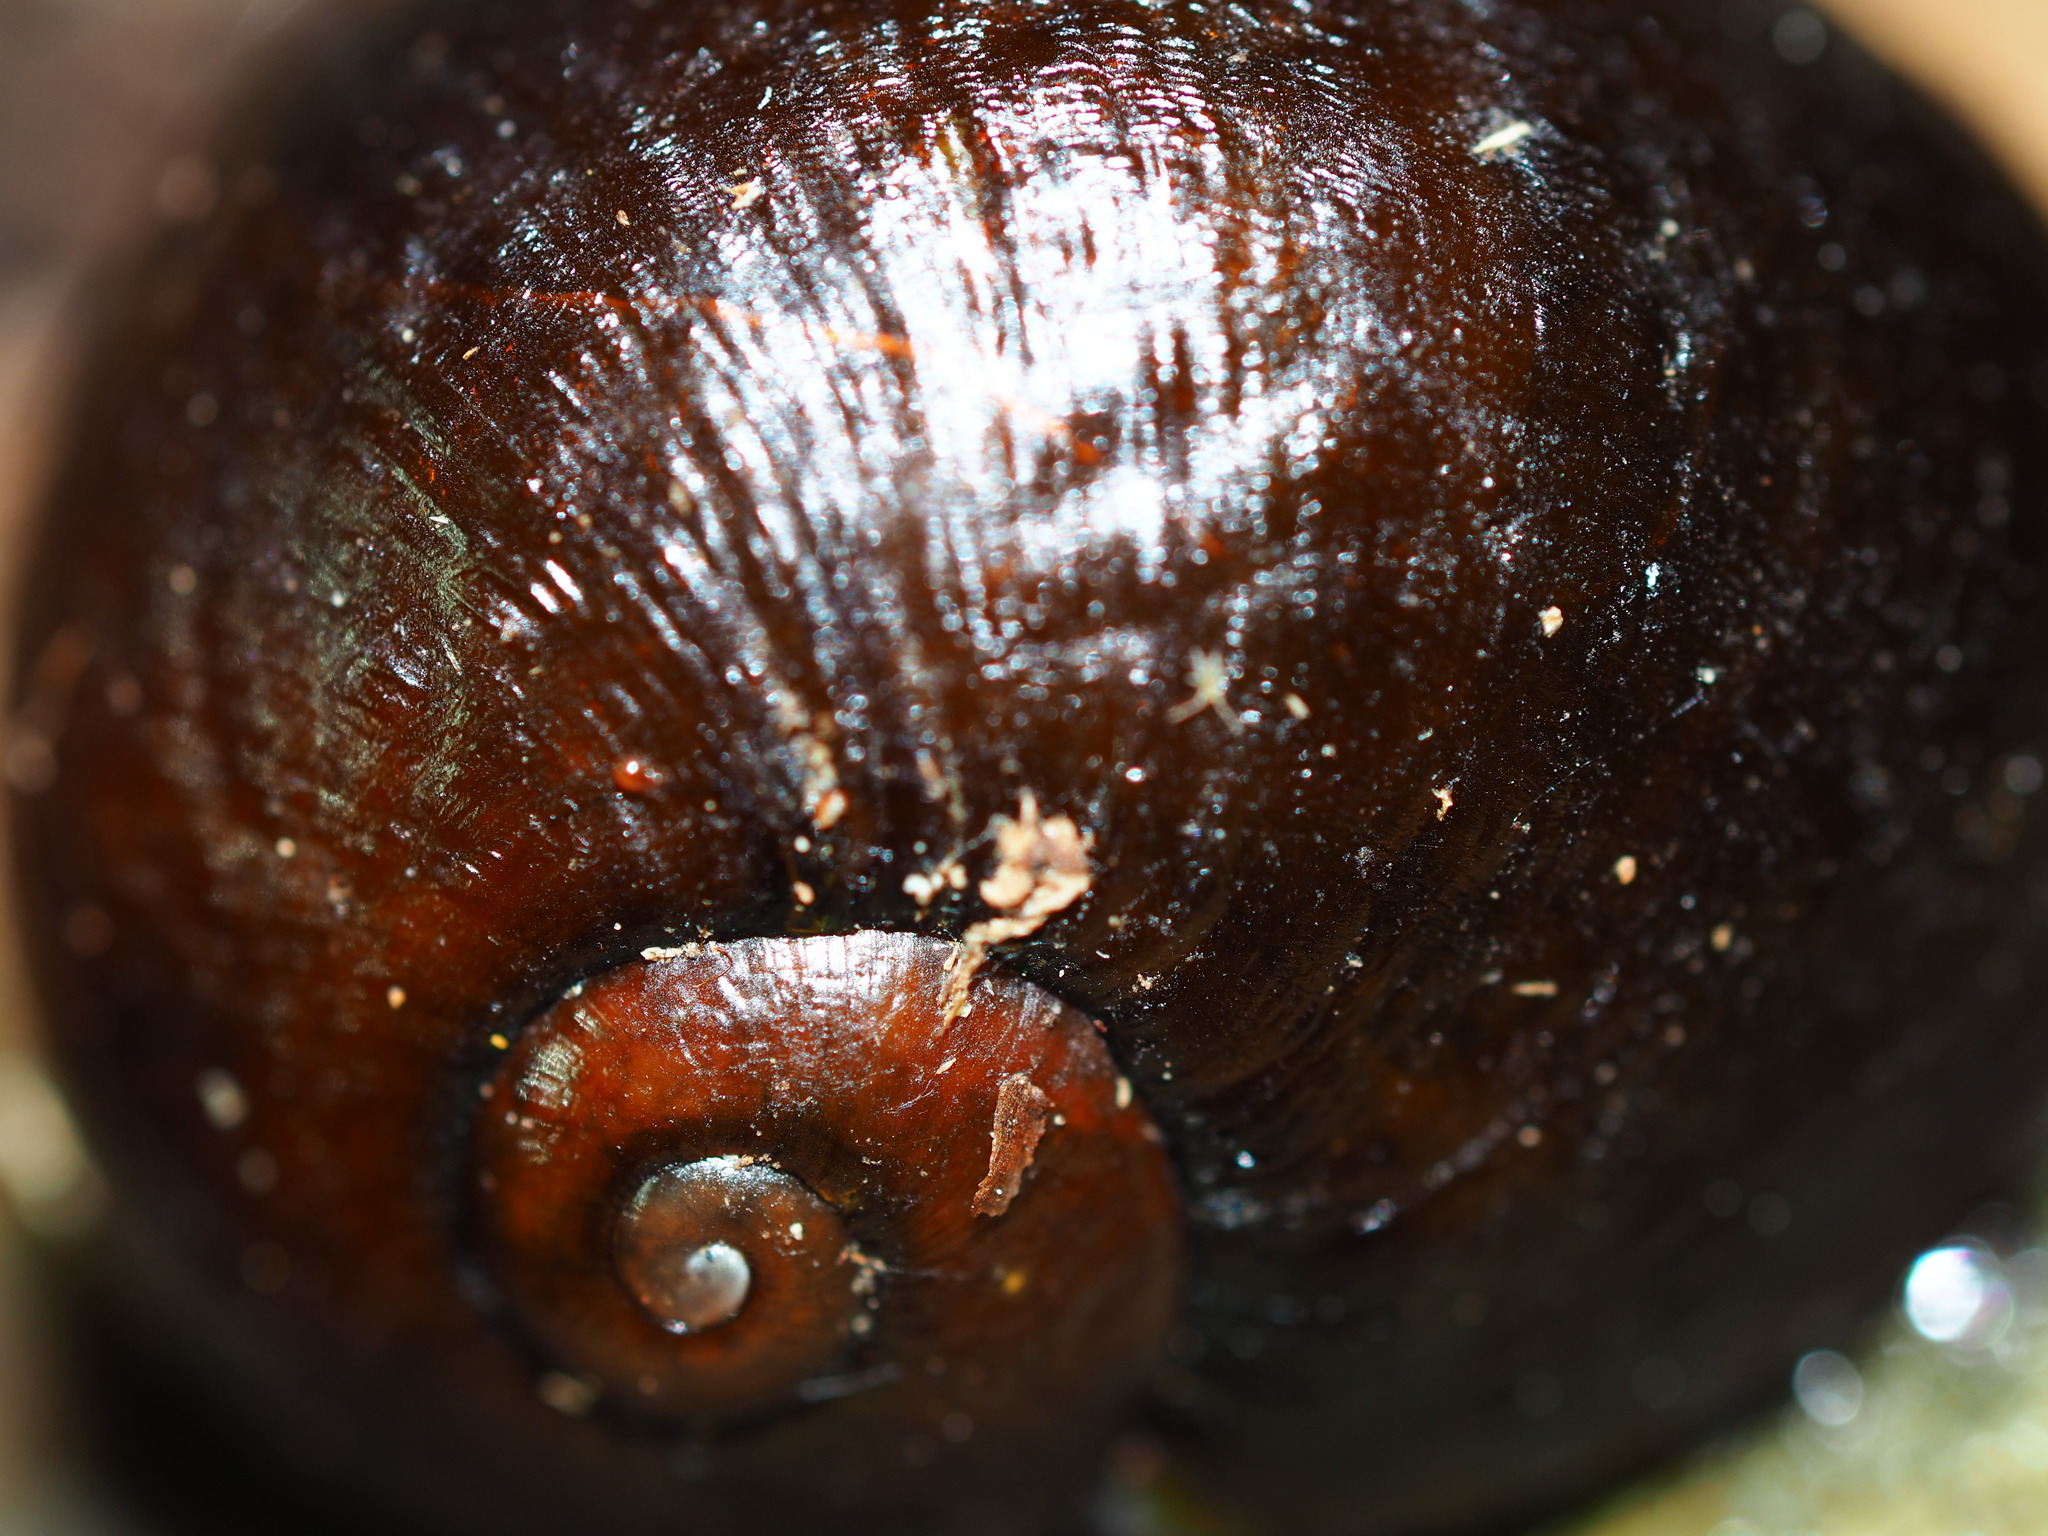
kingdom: Animalia
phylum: Mollusca
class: Gastropoda
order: Stylommatophora
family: Rhytididae
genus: Wainuia
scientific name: Wainuia urnula
